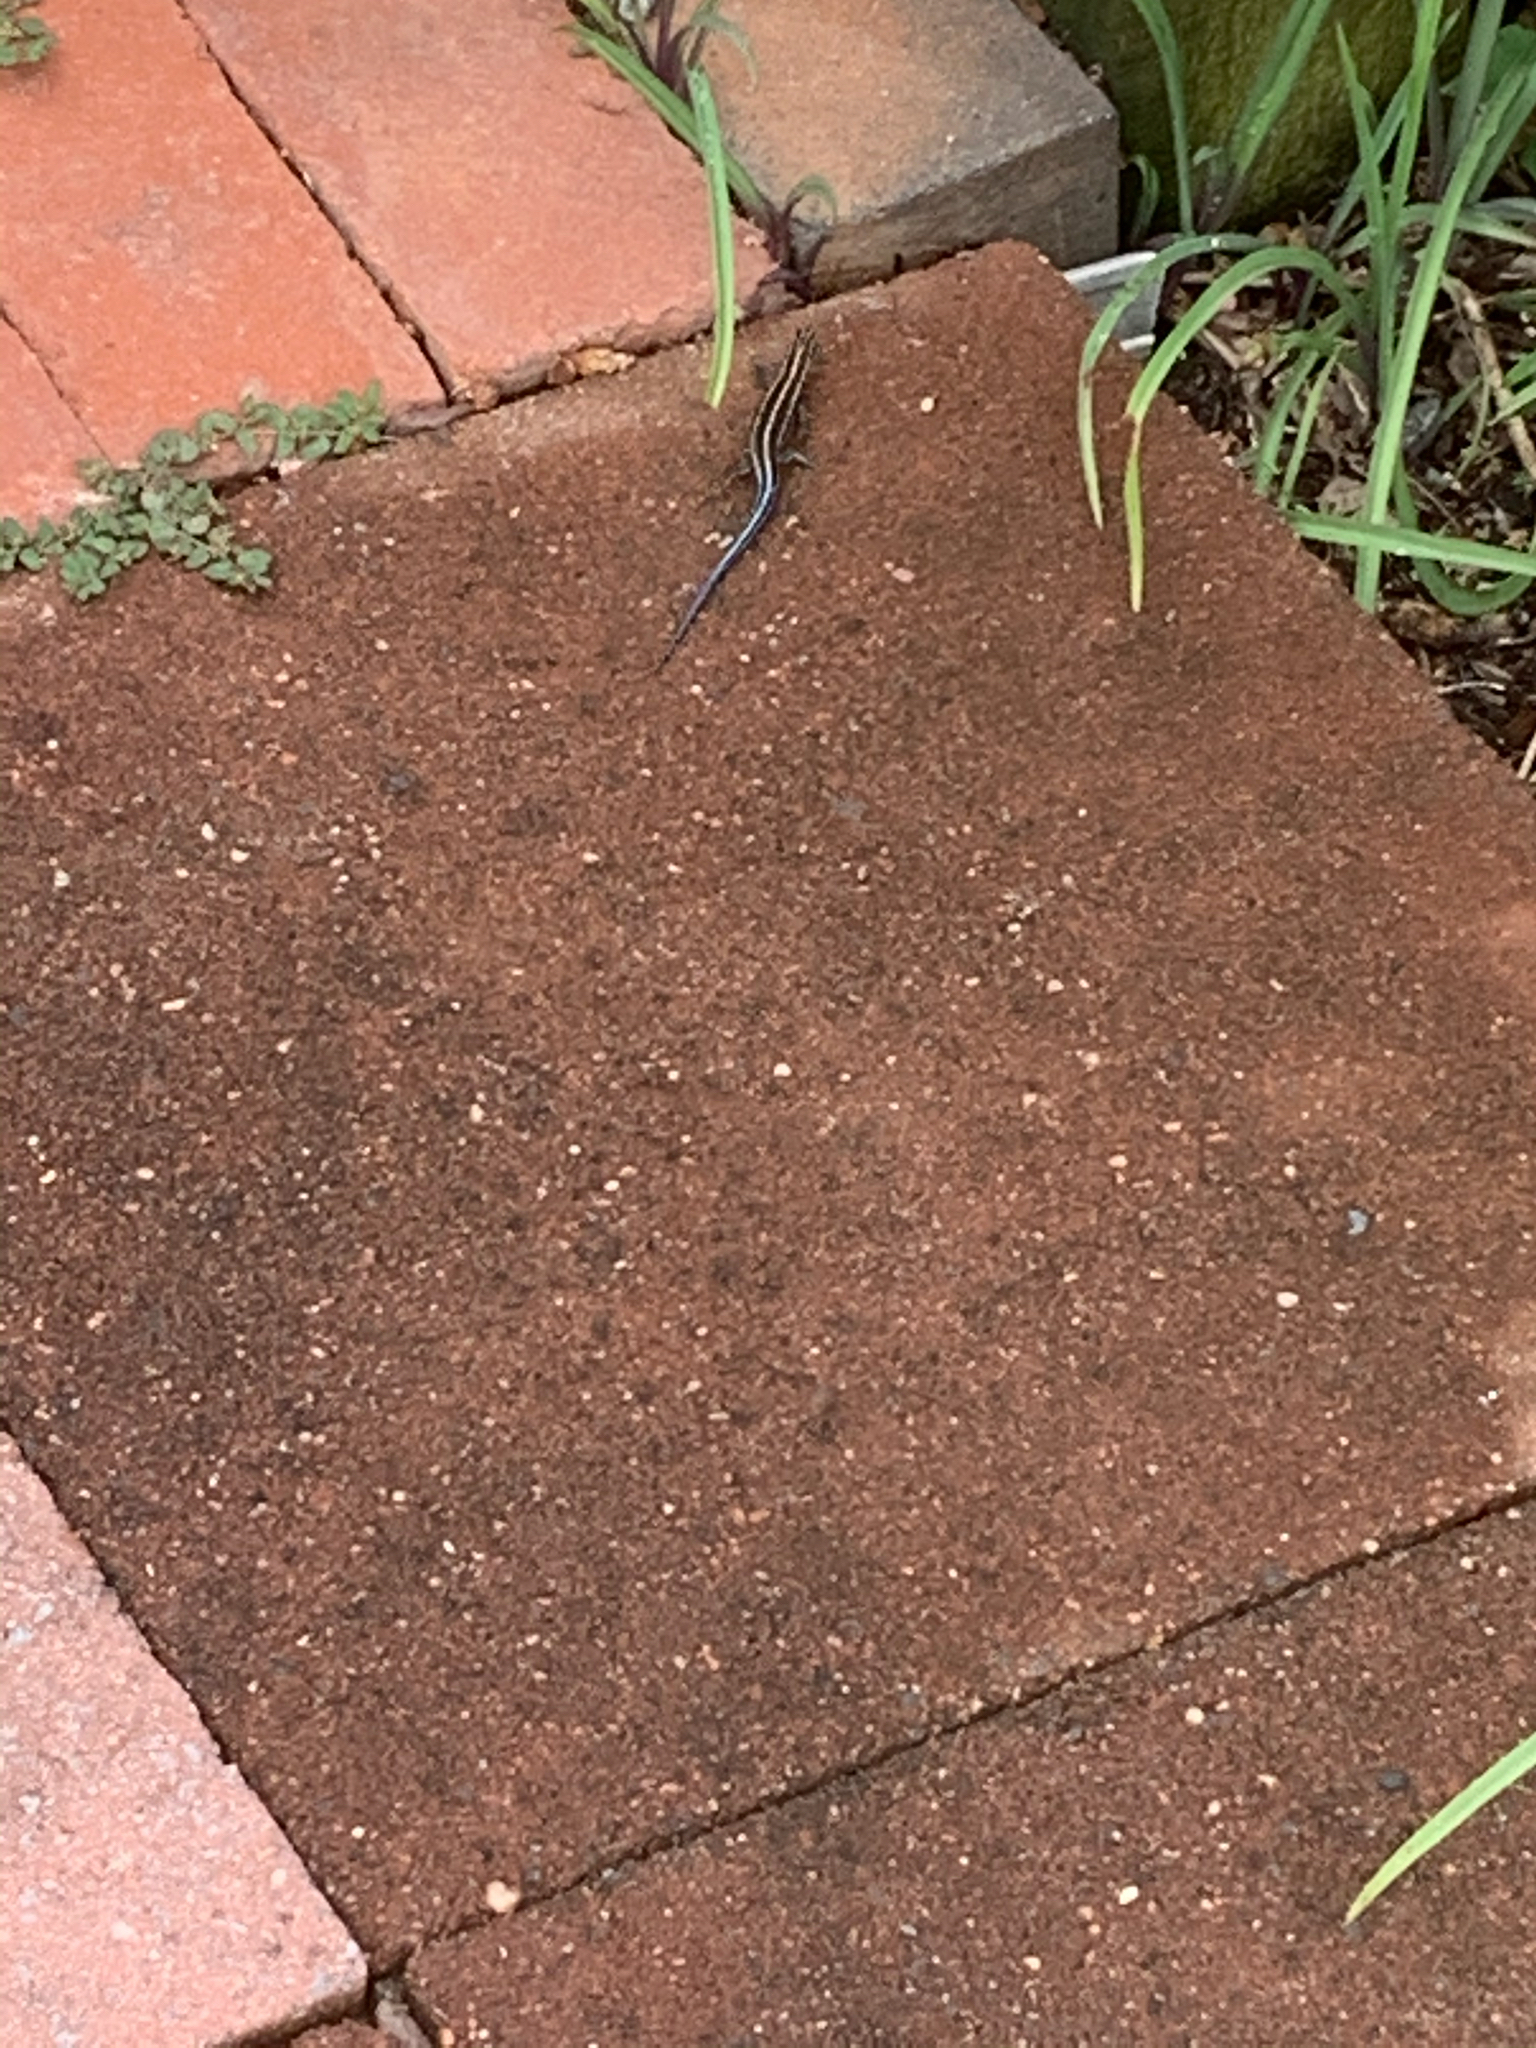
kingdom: Animalia
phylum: Chordata
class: Squamata
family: Scincidae
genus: Plestiodon
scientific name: Plestiodon fasciatus
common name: Five-lined skink
